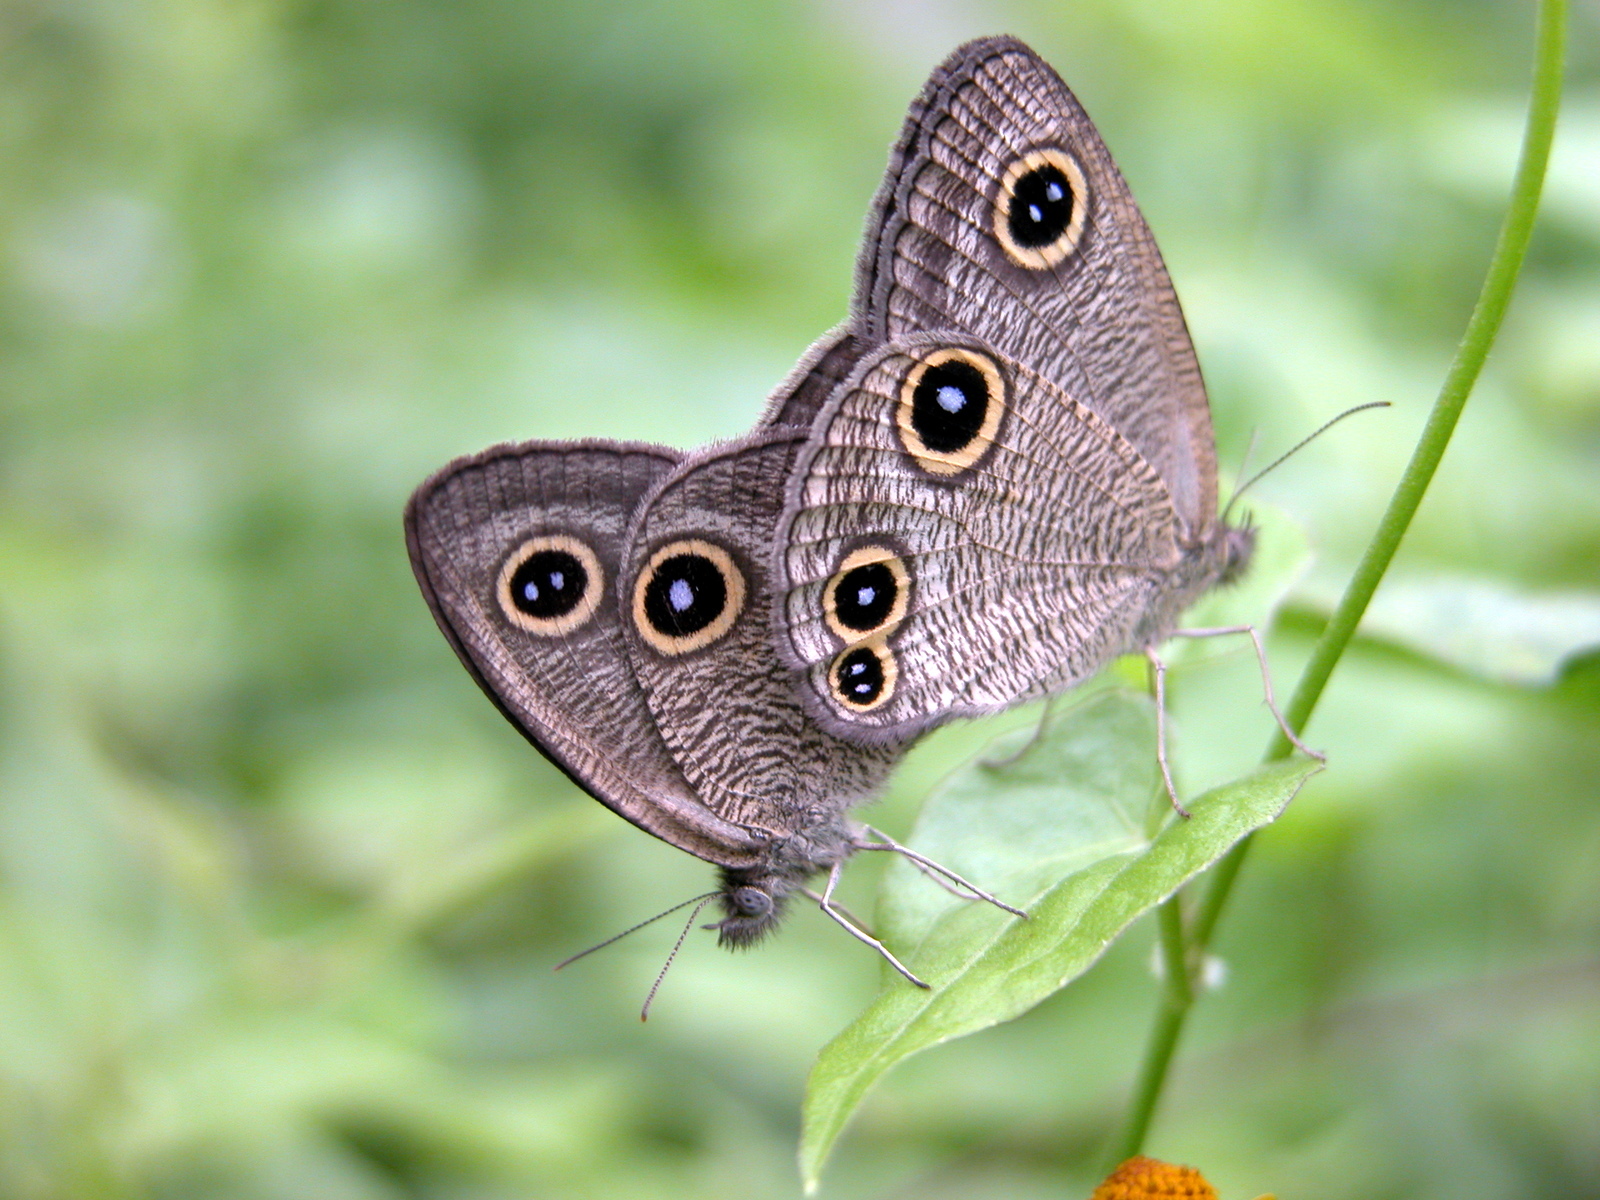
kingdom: Animalia
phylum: Arthropoda
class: Insecta
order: Lepidoptera
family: Nymphalidae
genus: Ypthima
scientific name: Ypthima newara
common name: Newar three ring
